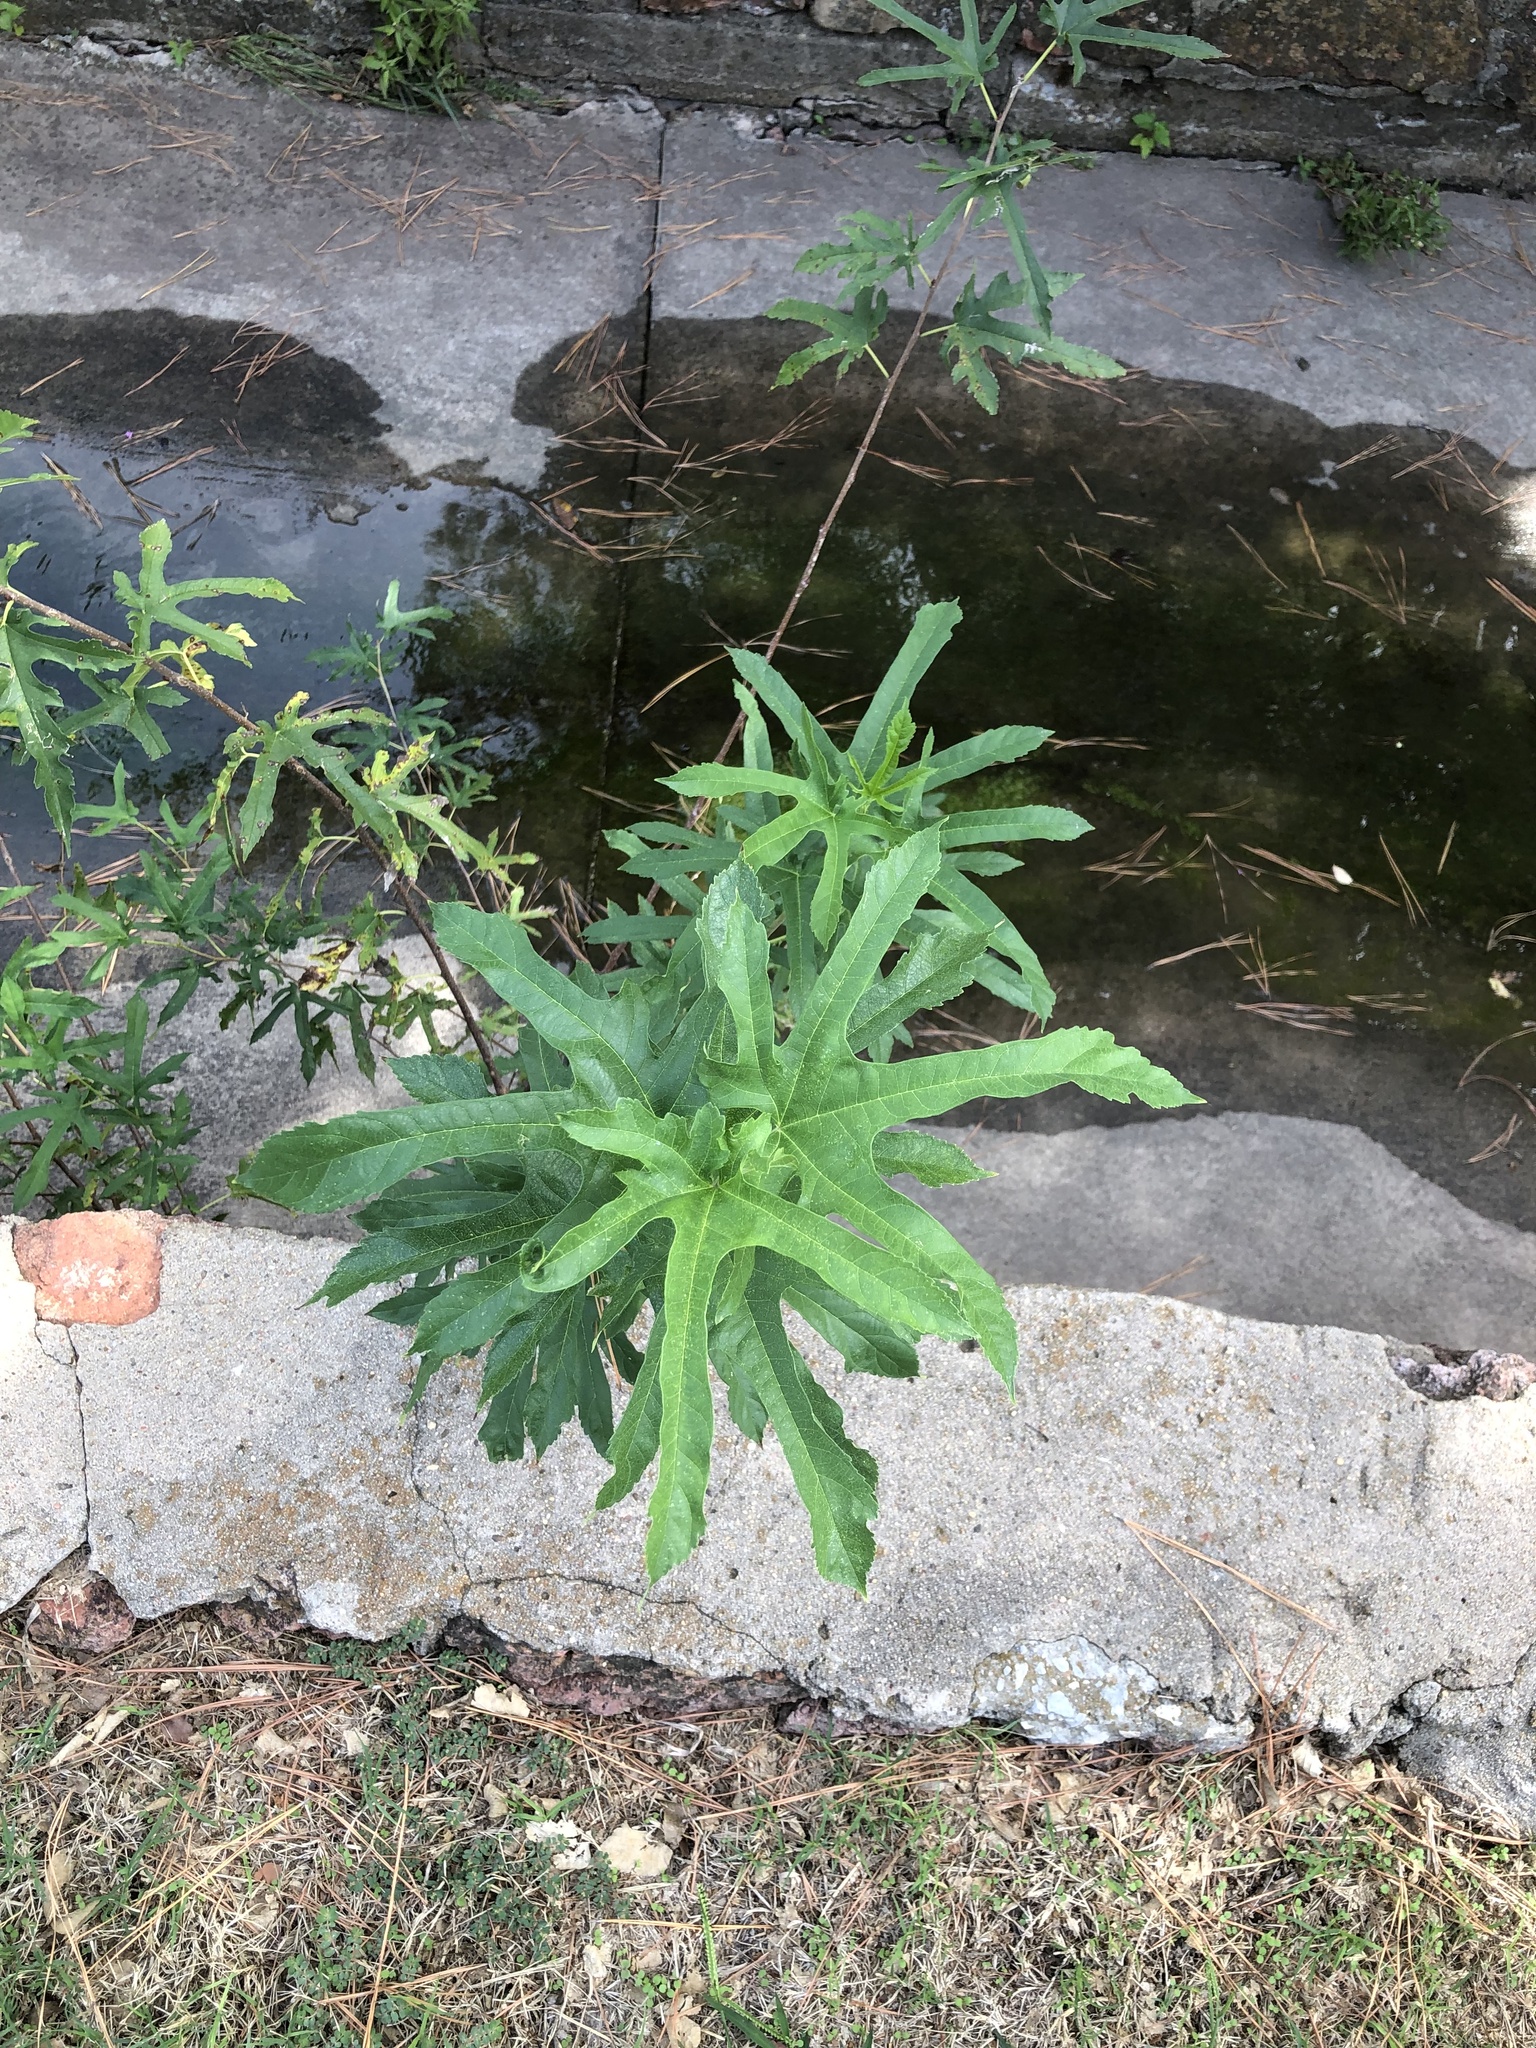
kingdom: Plantae
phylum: Tracheophyta
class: Magnoliopsida
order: Rosales
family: Moraceae
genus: Morus
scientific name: Morus alba
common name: White mulberry
